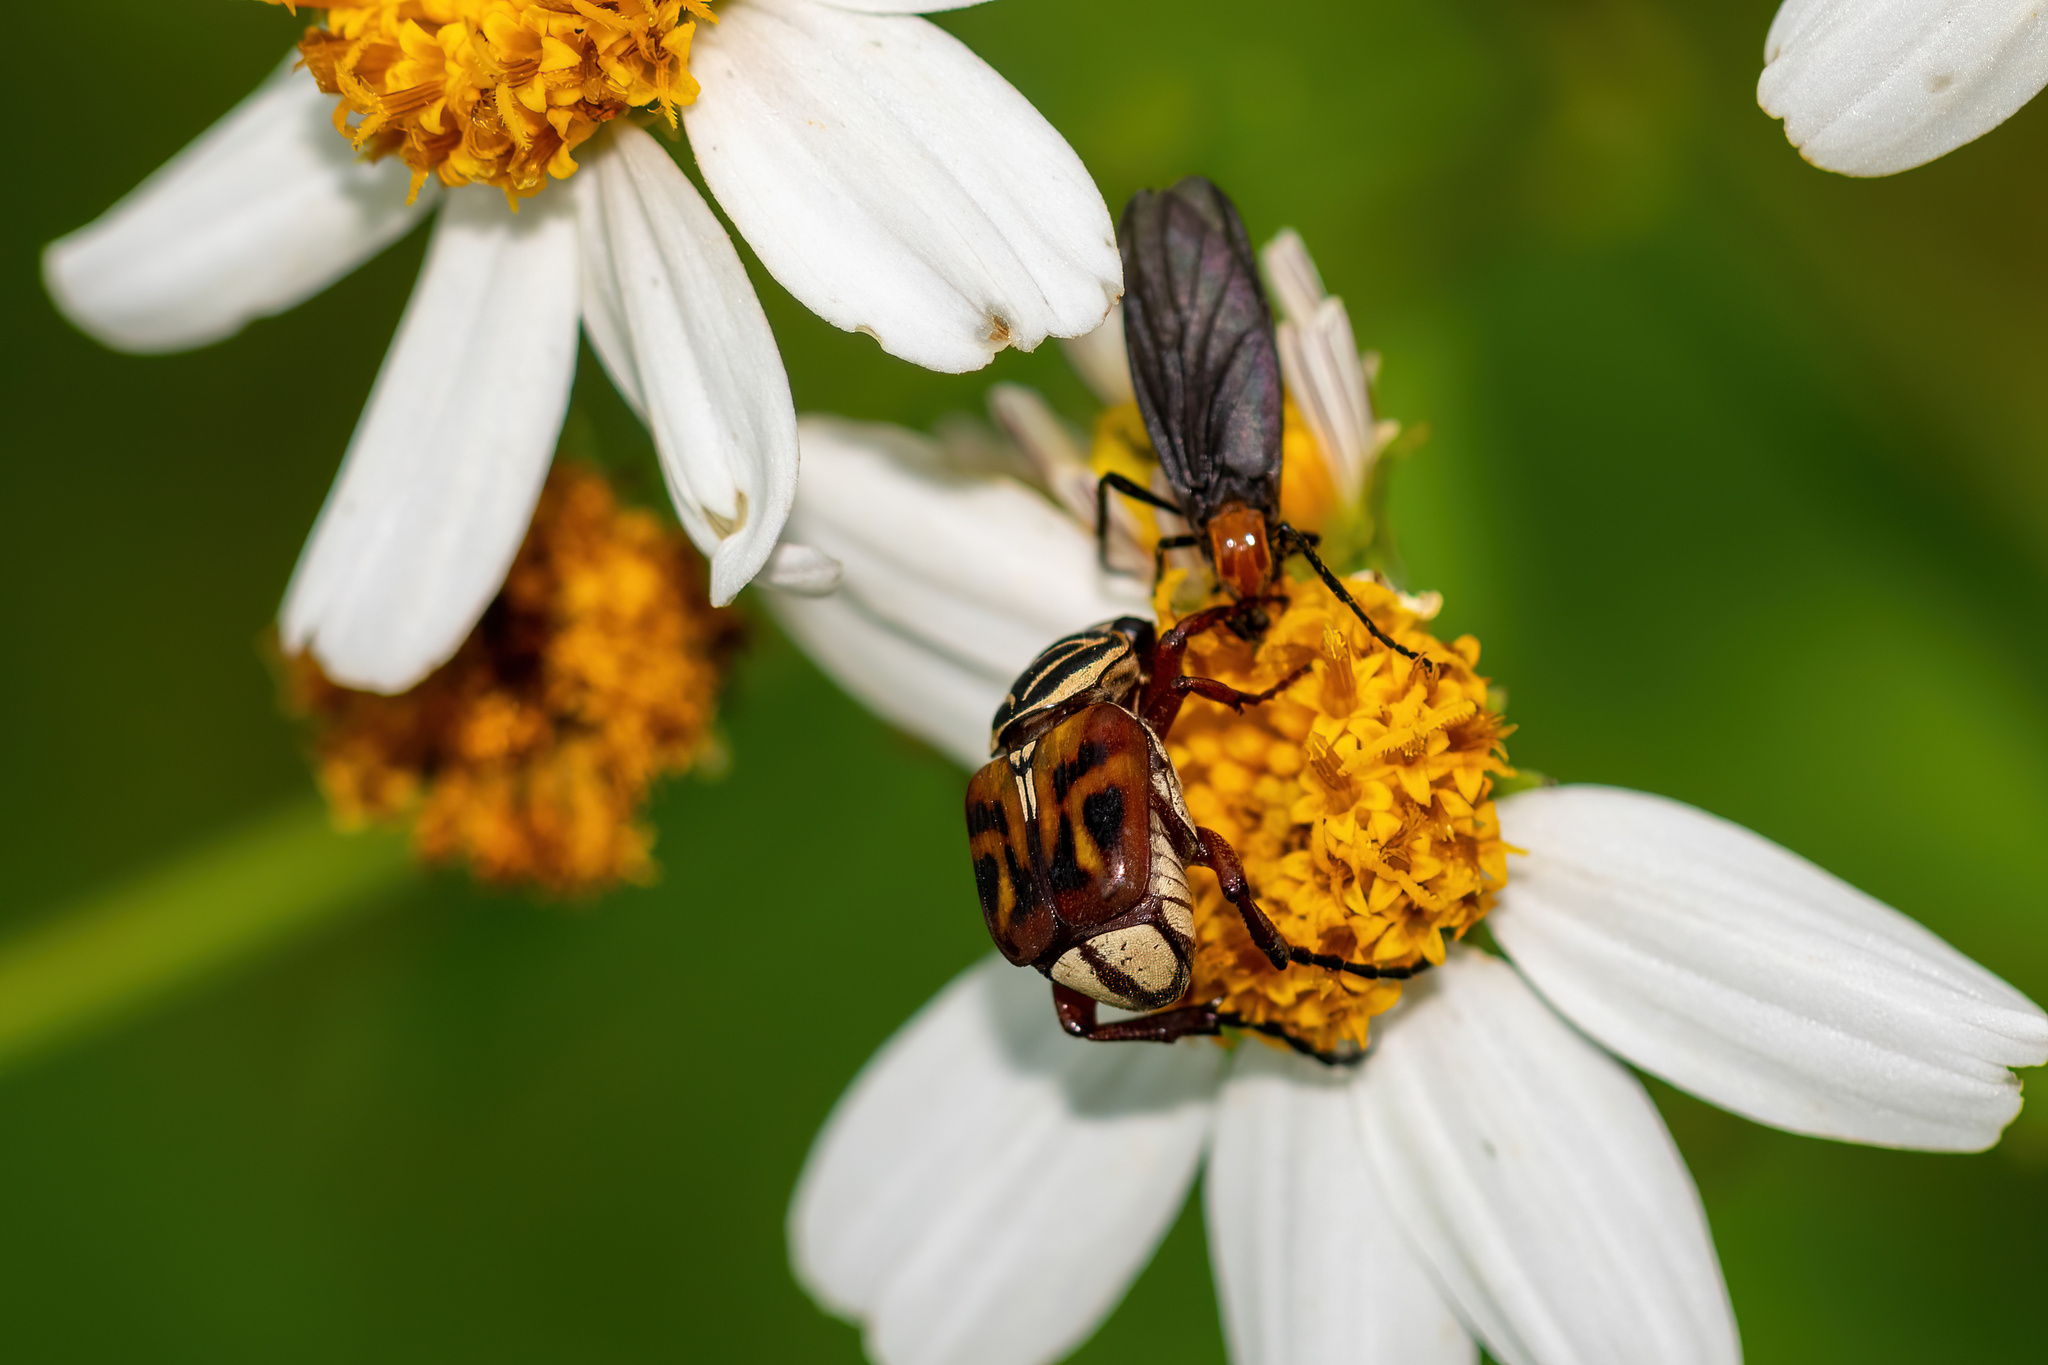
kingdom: Animalia
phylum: Arthropoda
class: Insecta
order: Coleoptera
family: Scarabaeidae
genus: Trigonopeltastes
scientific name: Trigonopeltastes delta
